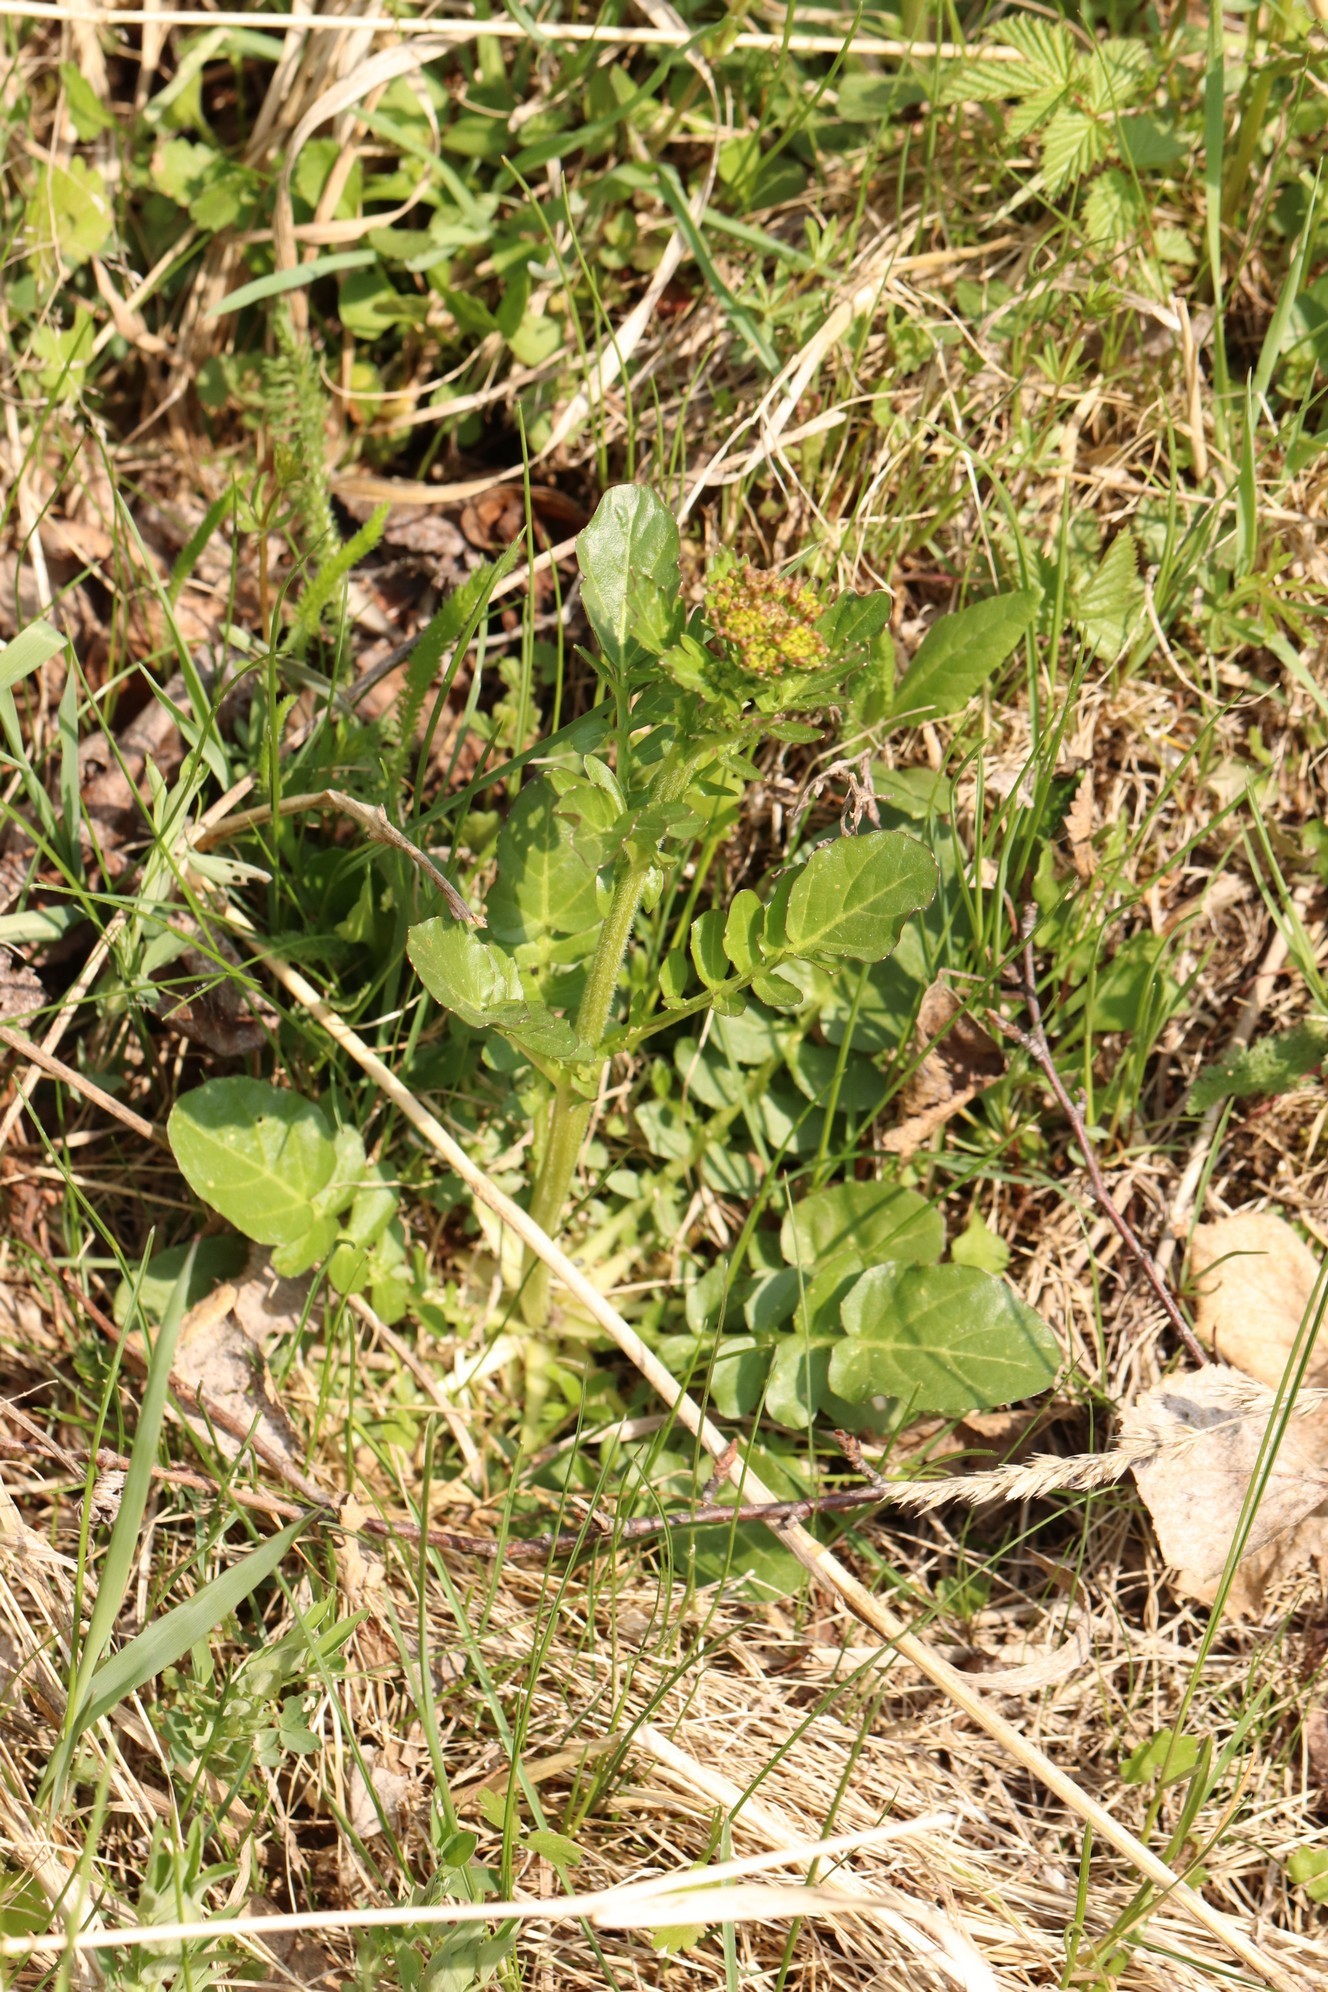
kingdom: Plantae
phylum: Tracheophyta
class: Magnoliopsida
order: Brassicales
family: Brassicaceae
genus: Barbarea
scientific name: Barbarea vulgaris
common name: Cressy-greens
